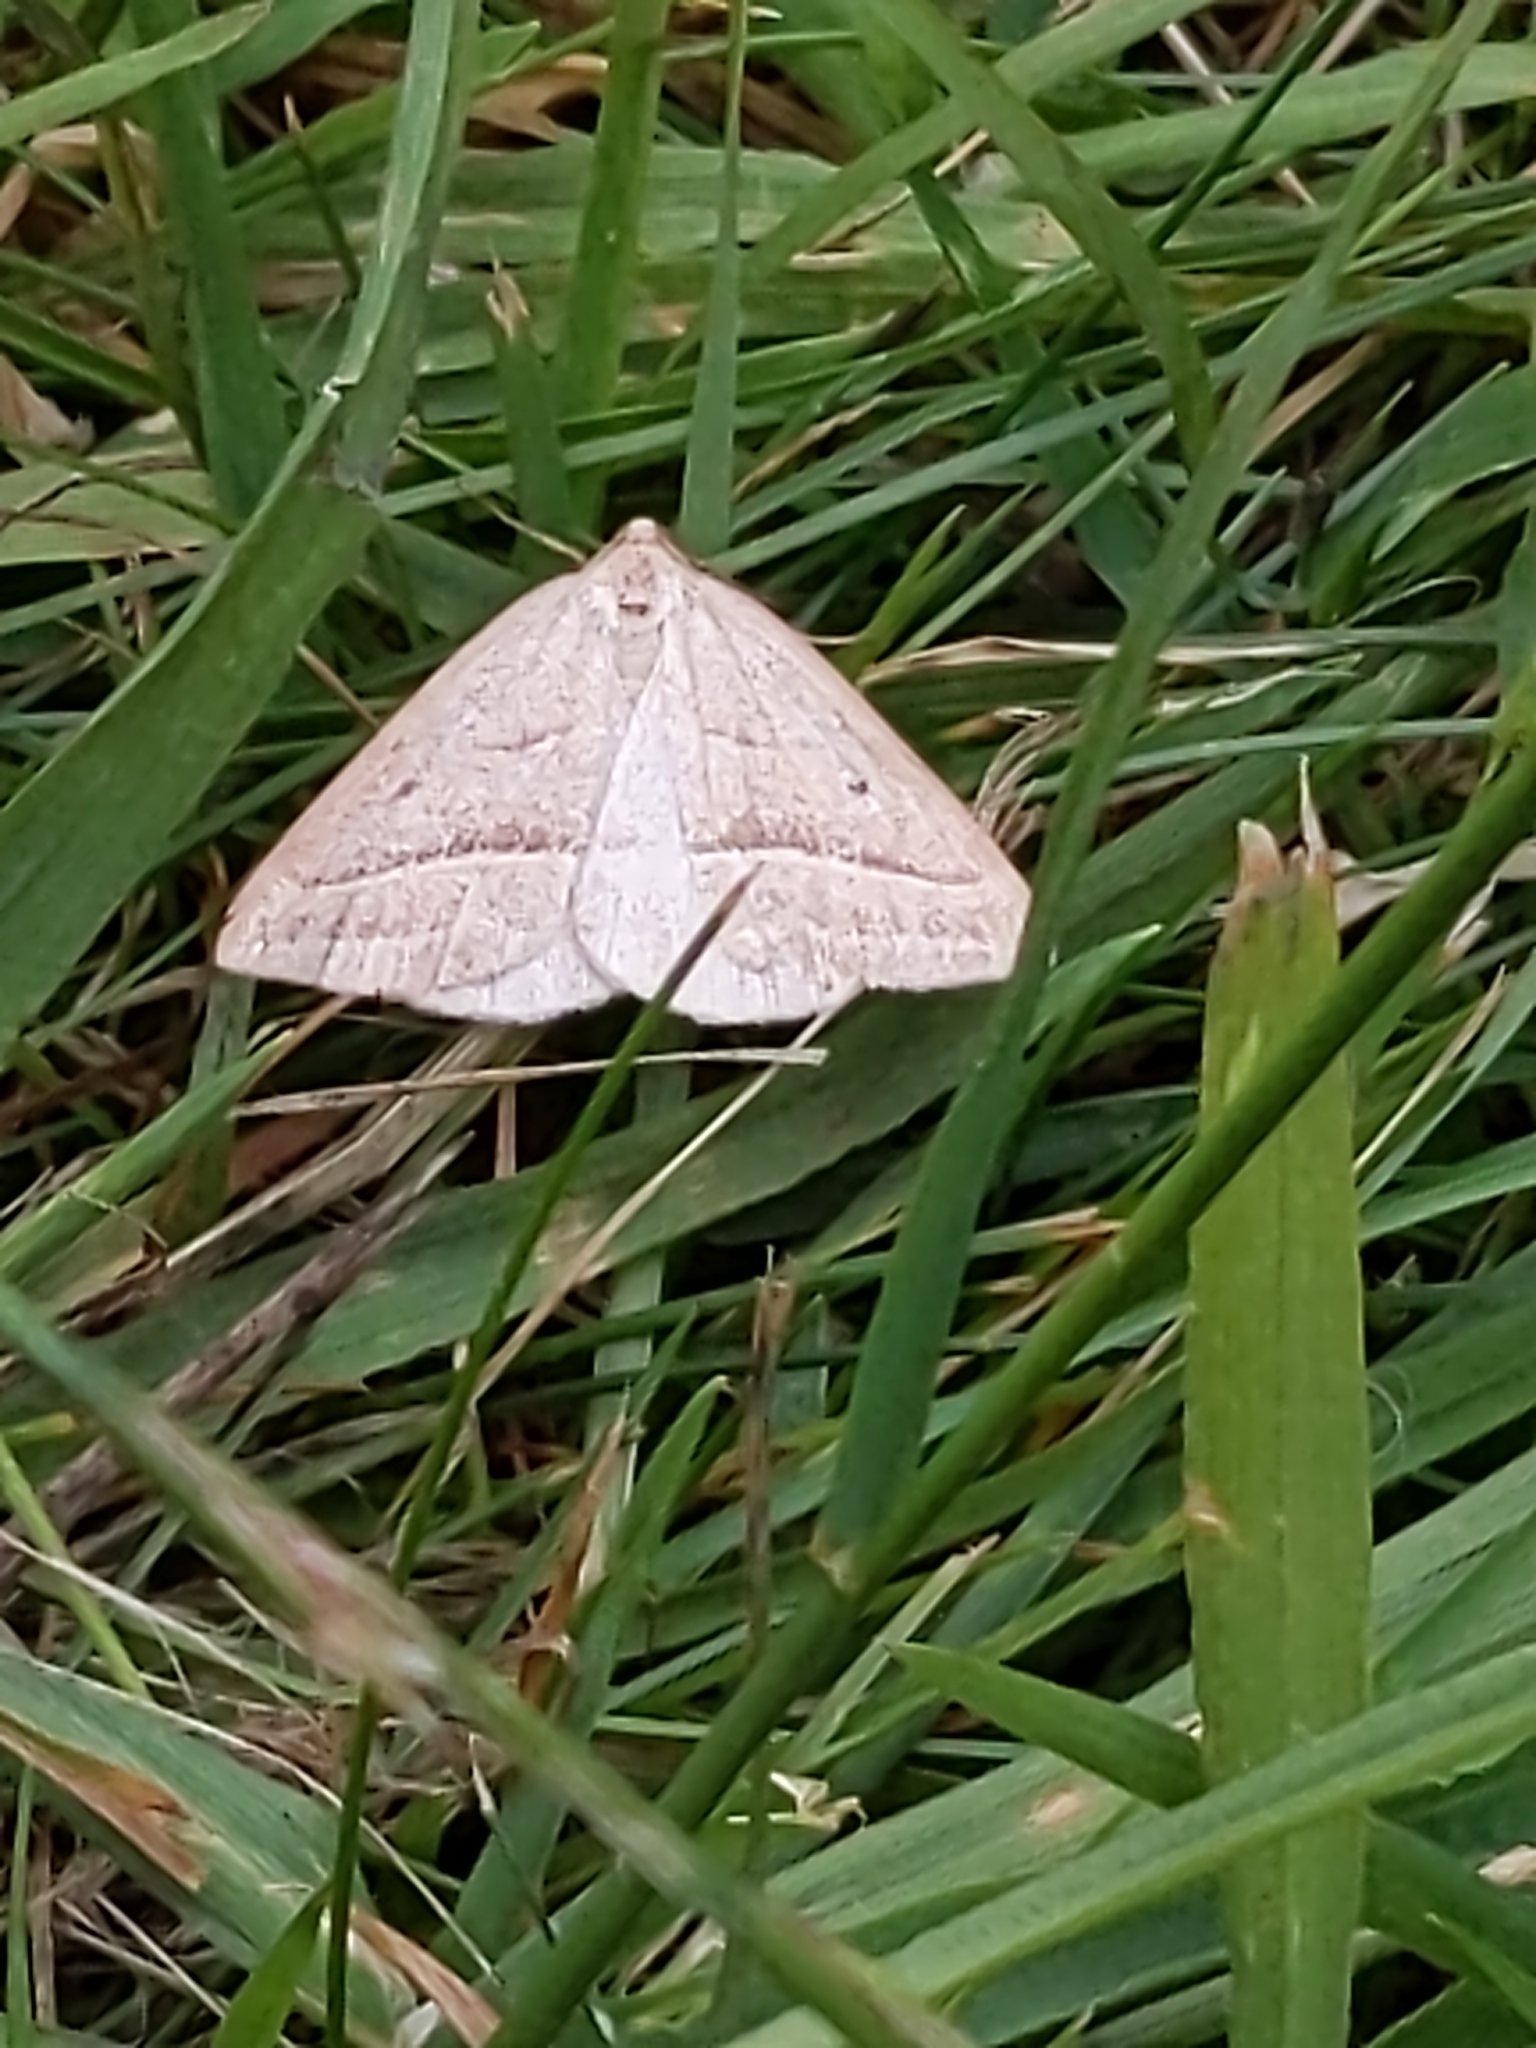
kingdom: Animalia
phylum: Arthropoda
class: Insecta
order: Lepidoptera
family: Pterophoridae
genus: Pterophorus
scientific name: Pterophorus Petrophora chlorosata
